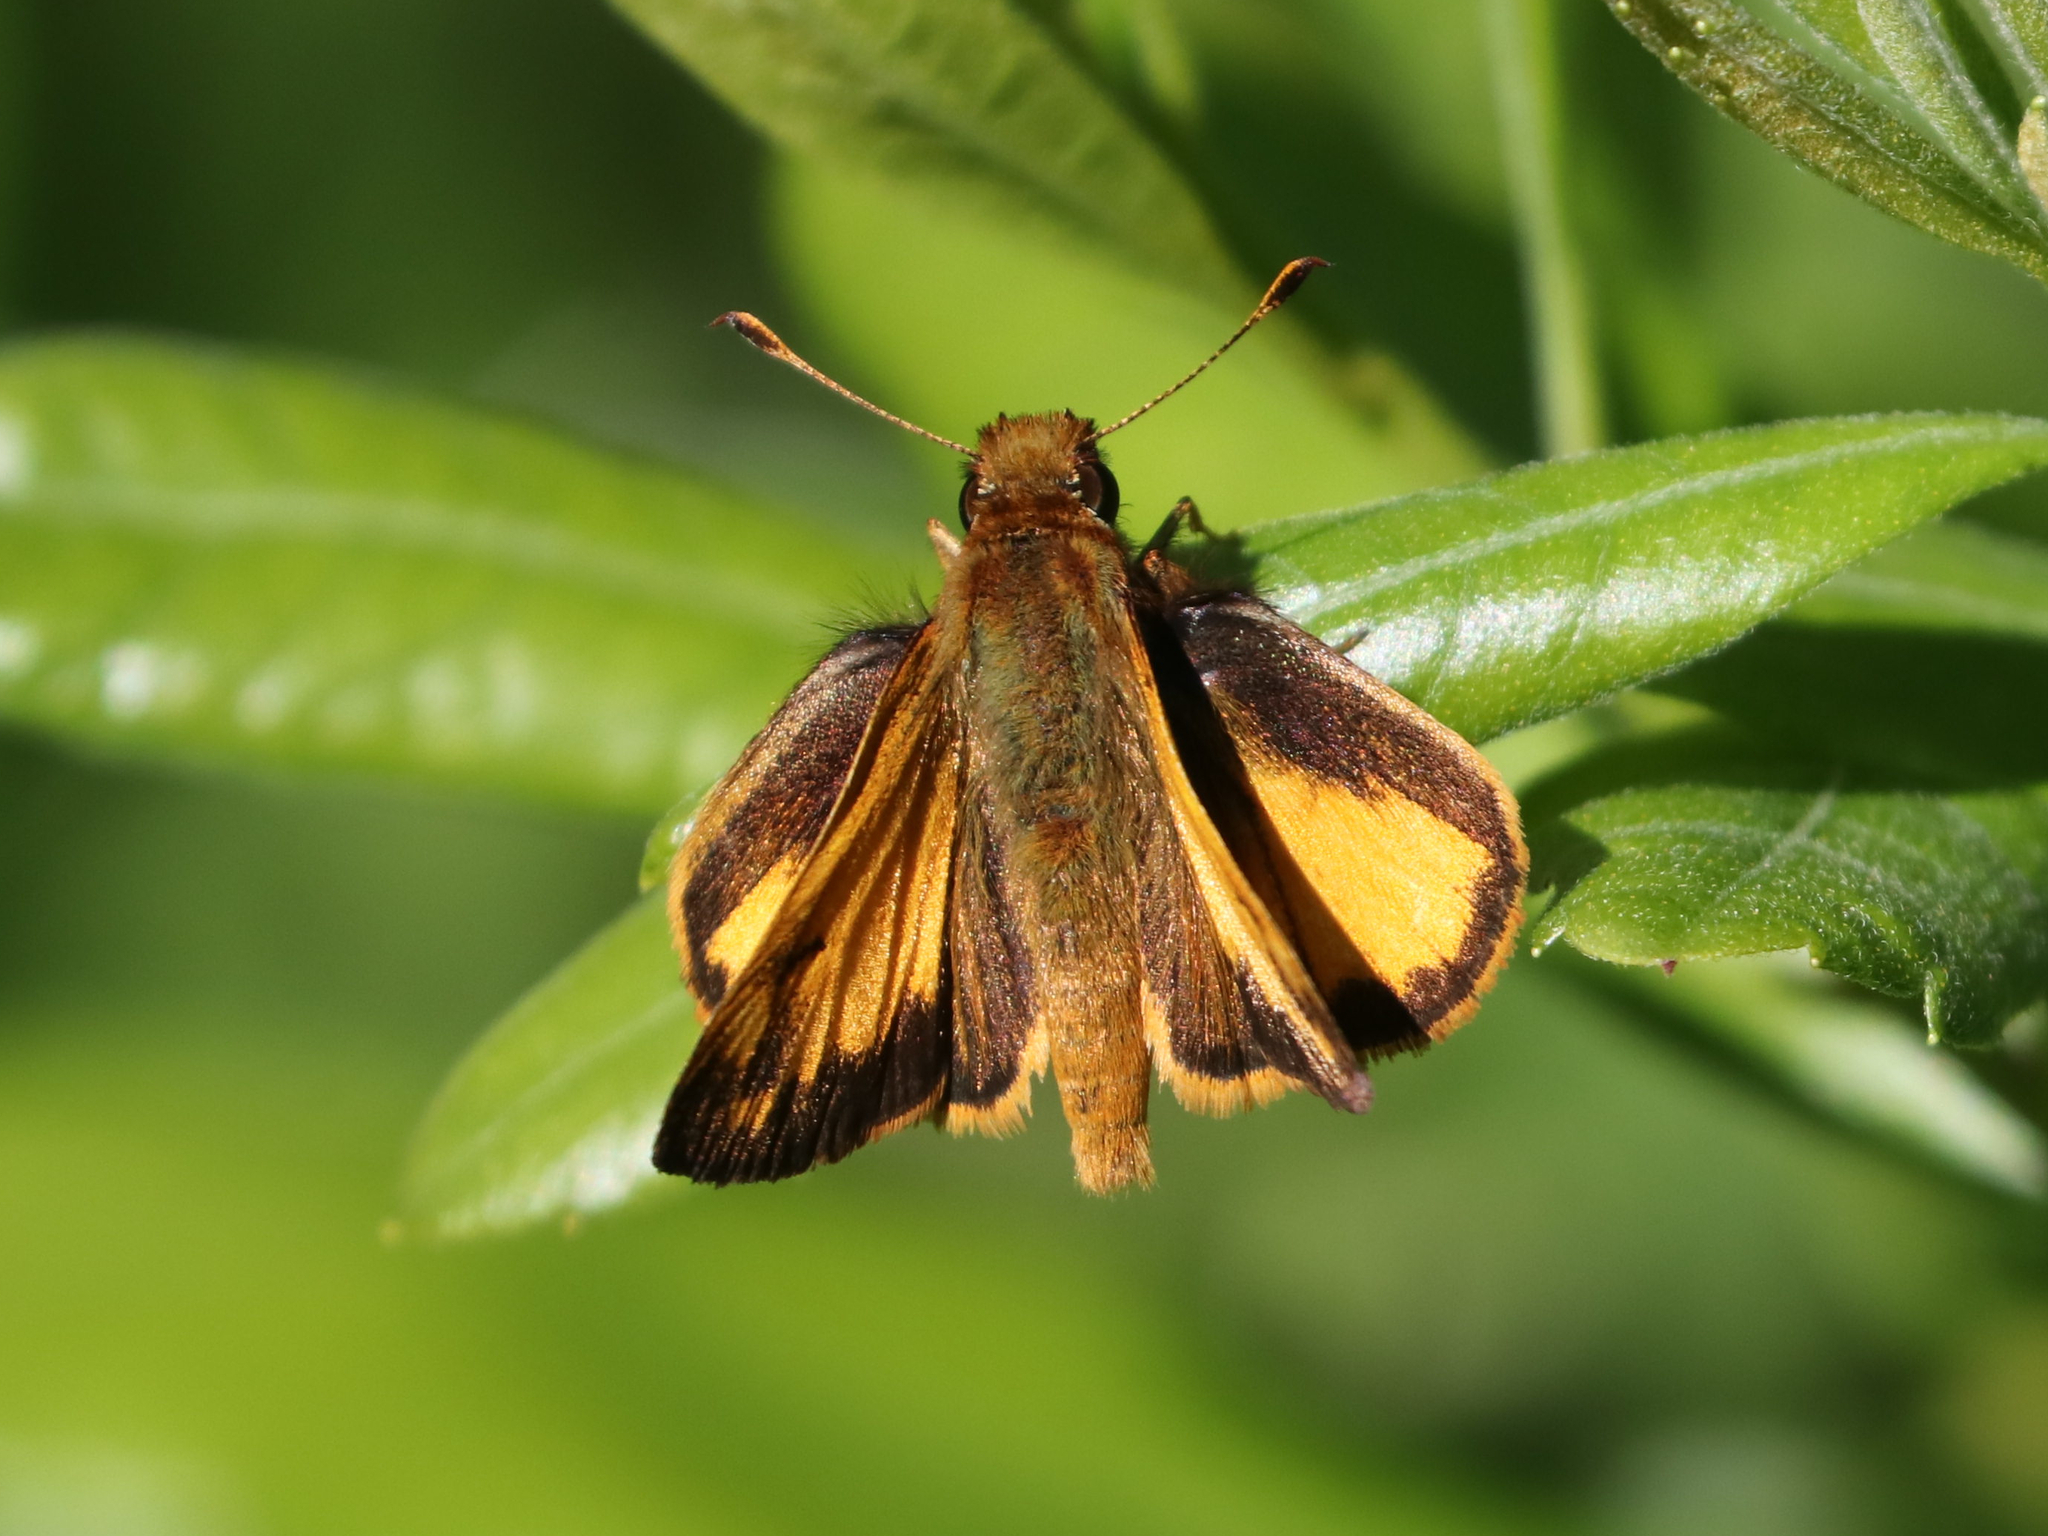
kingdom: Animalia
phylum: Arthropoda
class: Insecta
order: Lepidoptera
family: Hesperiidae
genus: Lon
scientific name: Lon zabulon
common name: Zabulon skipper
